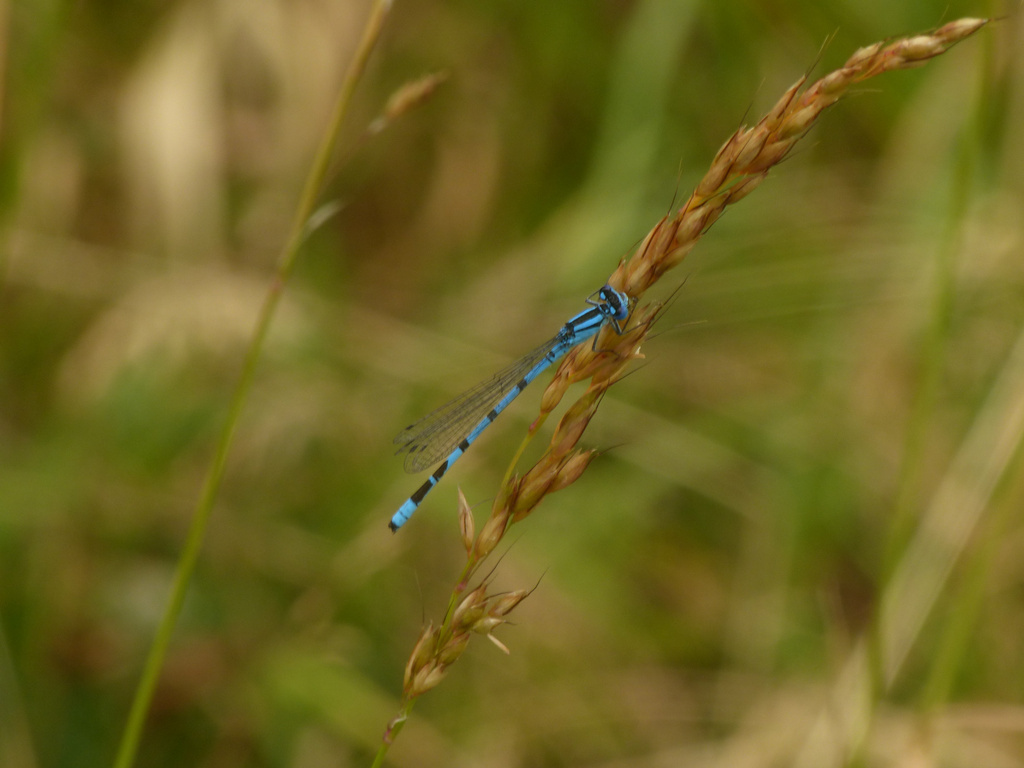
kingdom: Animalia
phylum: Arthropoda
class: Insecta
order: Odonata
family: Coenagrionidae
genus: Enallagma
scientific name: Enallagma cyathigerum
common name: Common blue damselfly
